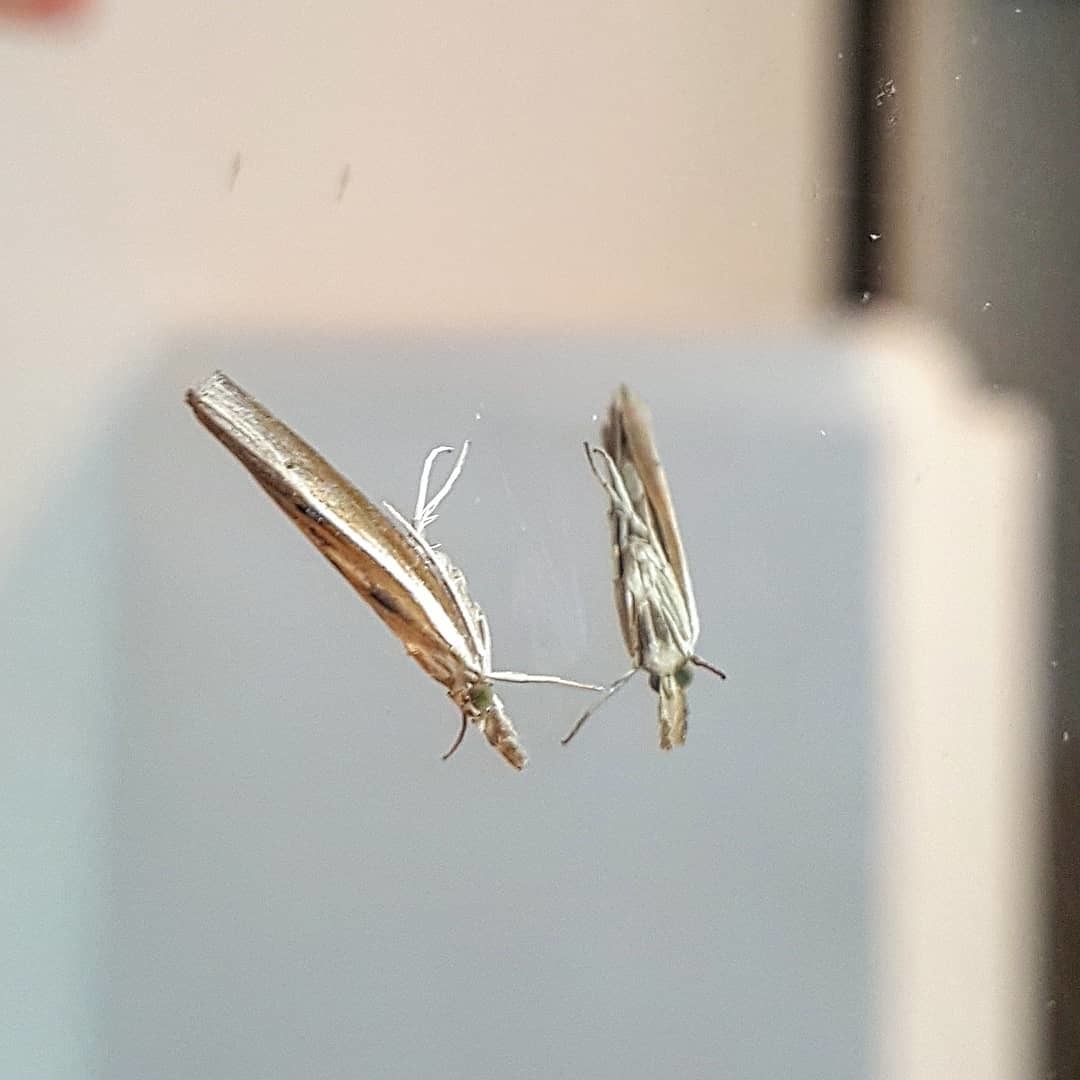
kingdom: Animalia
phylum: Arthropoda
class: Insecta
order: Lepidoptera
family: Crambidae
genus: Fissicrambus
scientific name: Fissicrambus fissiradiellus
